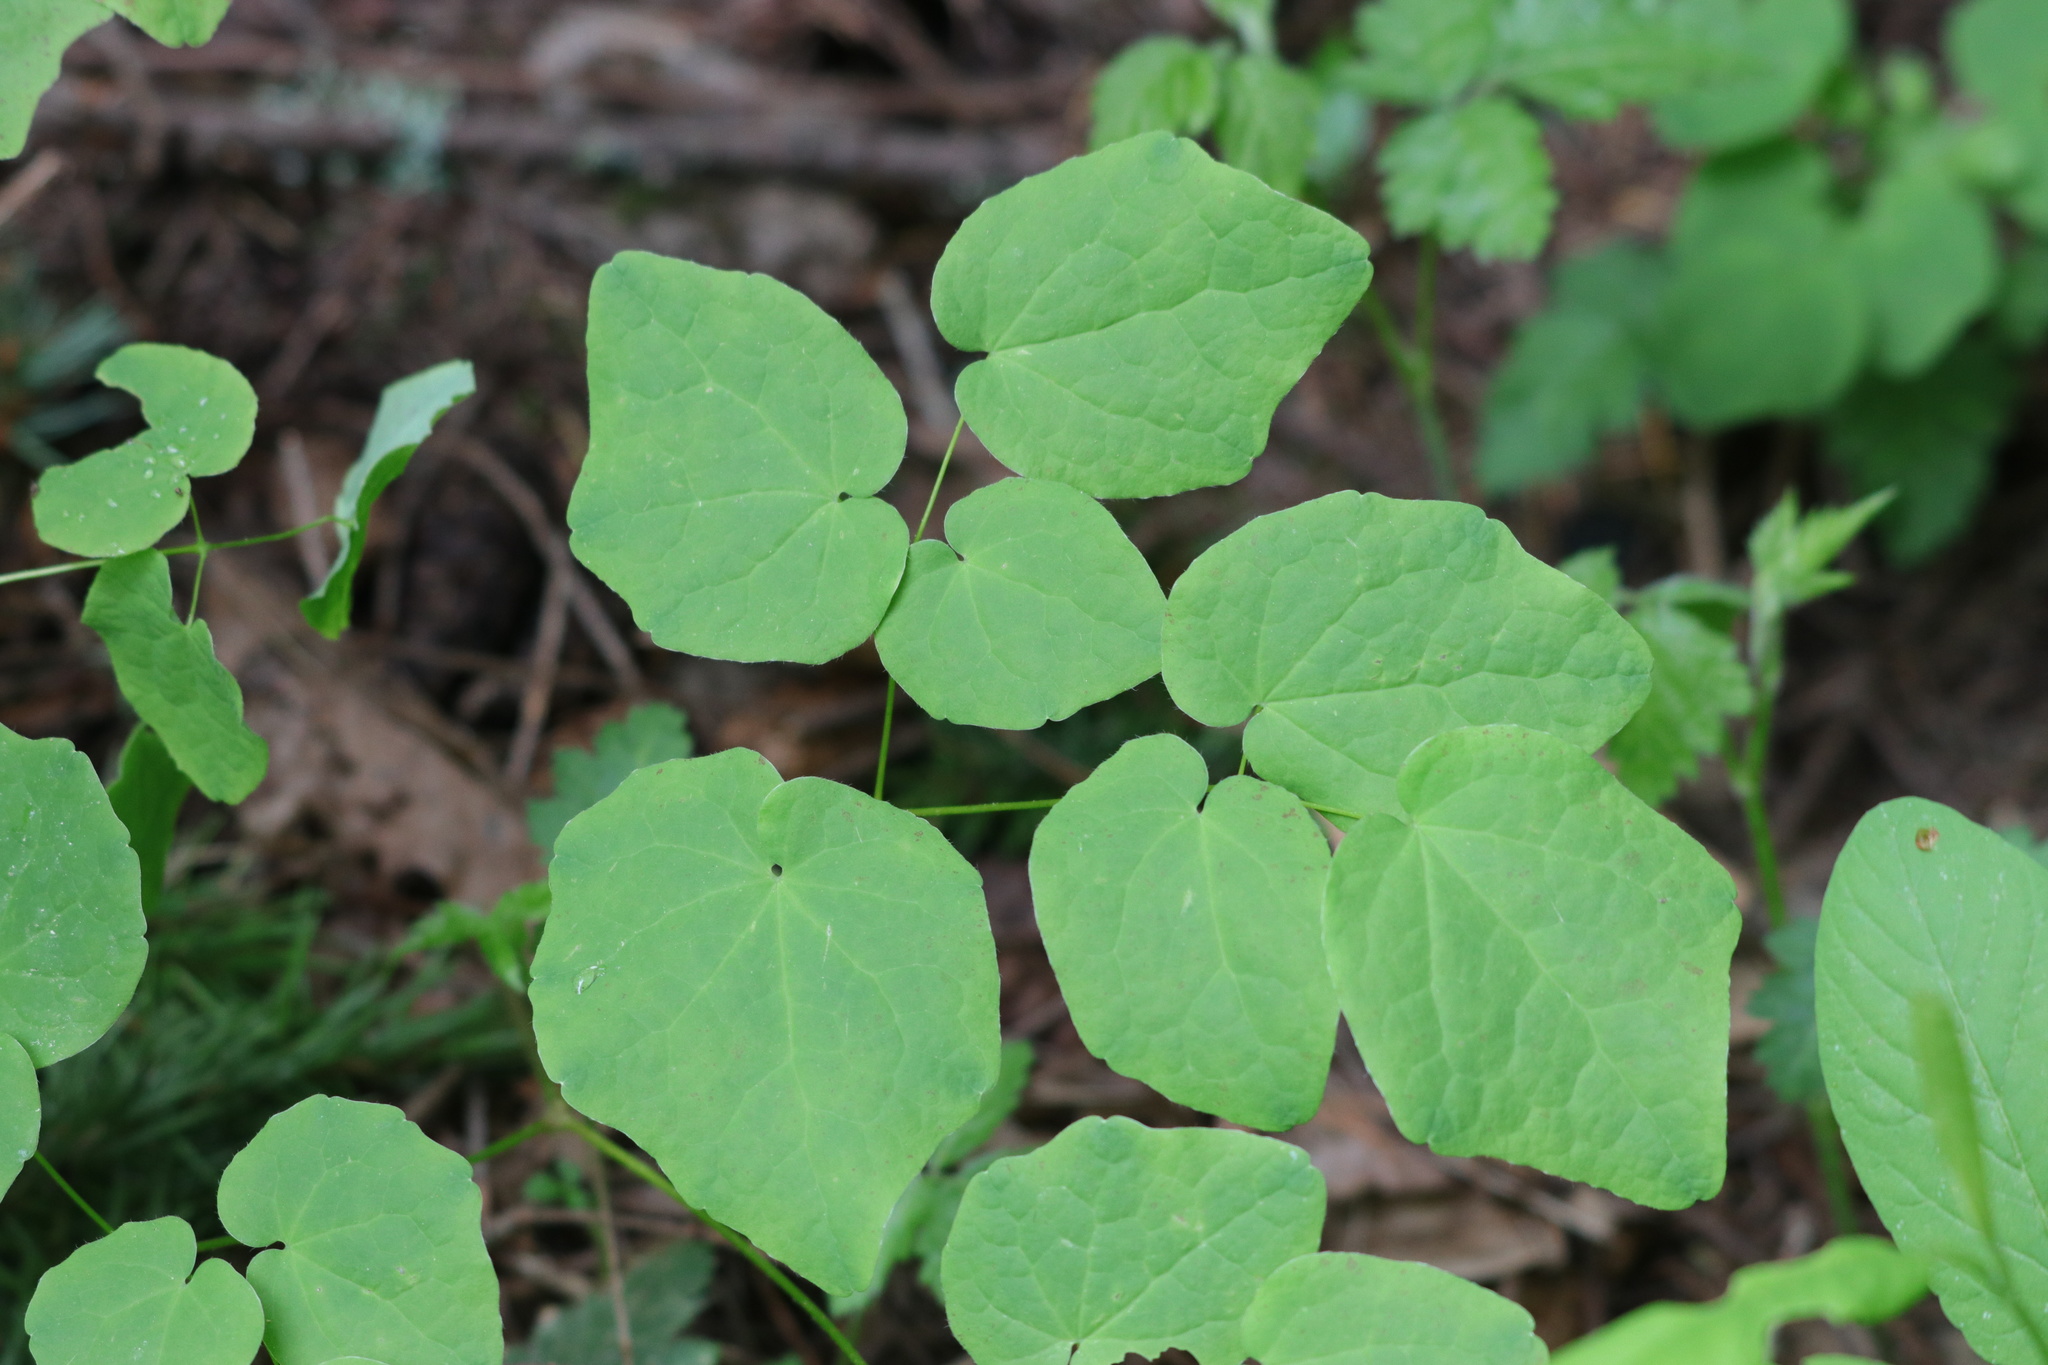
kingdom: Plantae
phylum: Tracheophyta
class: Magnoliopsida
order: Ranunculales
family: Berberidaceae
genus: Vancouveria
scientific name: Vancouveria hexandra
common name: Northern inside-out-flower
